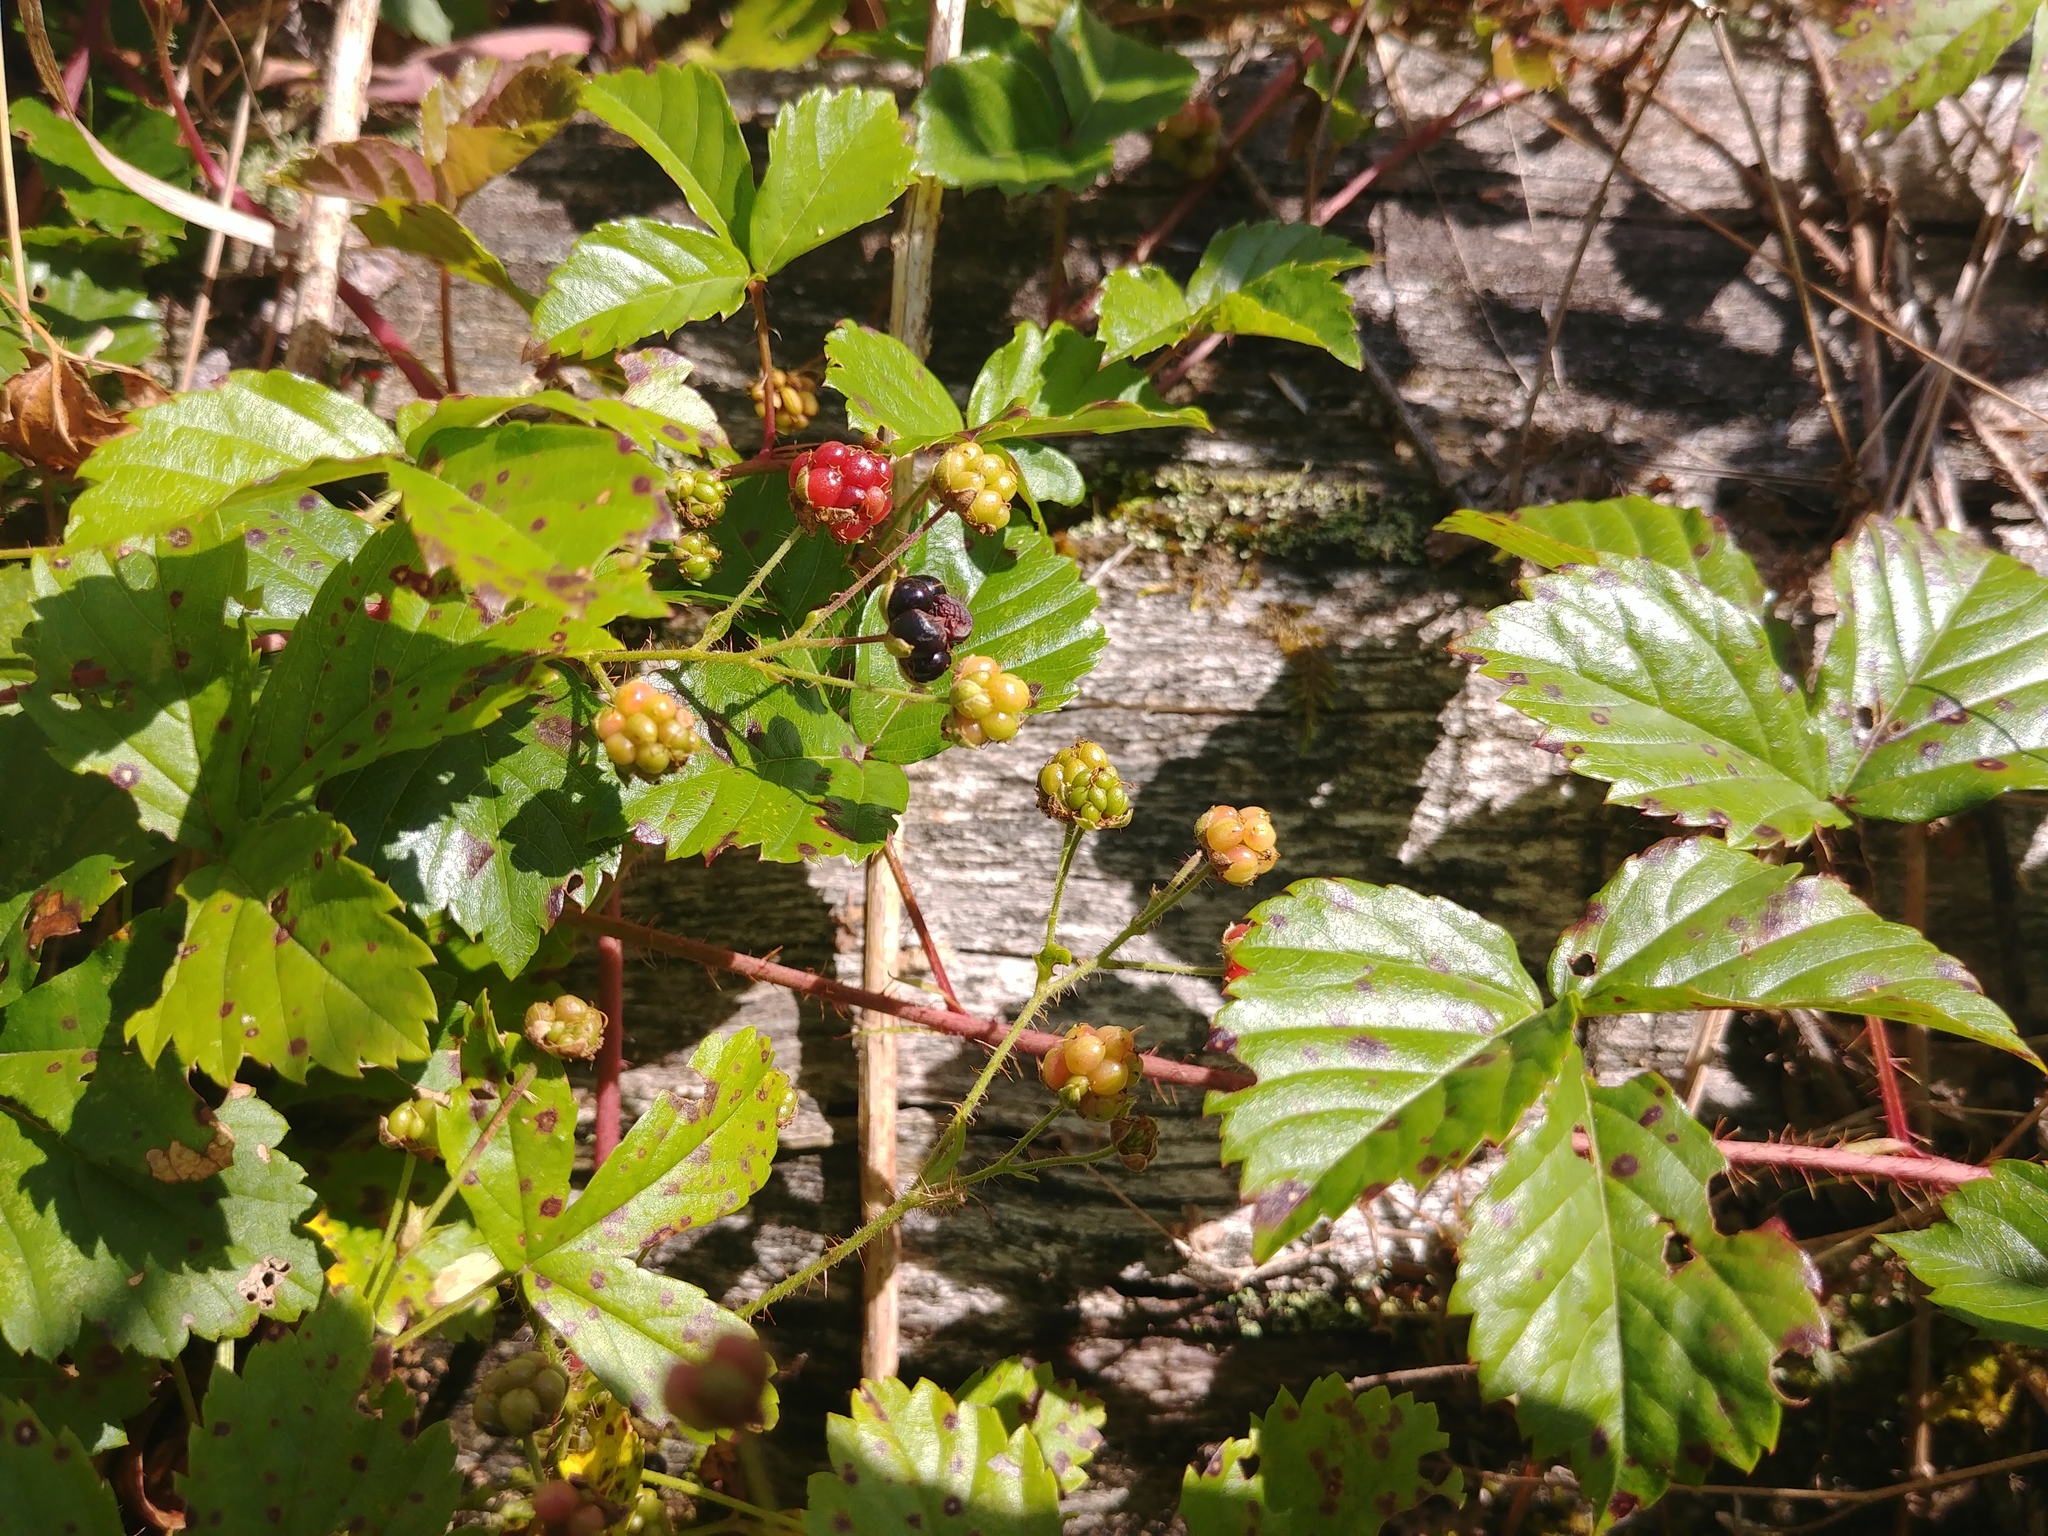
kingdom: Plantae
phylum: Tracheophyta
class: Magnoliopsida
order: Rosales
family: Rosaceae
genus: Rubus
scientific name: Rubus hispidus
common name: Running blackberry
